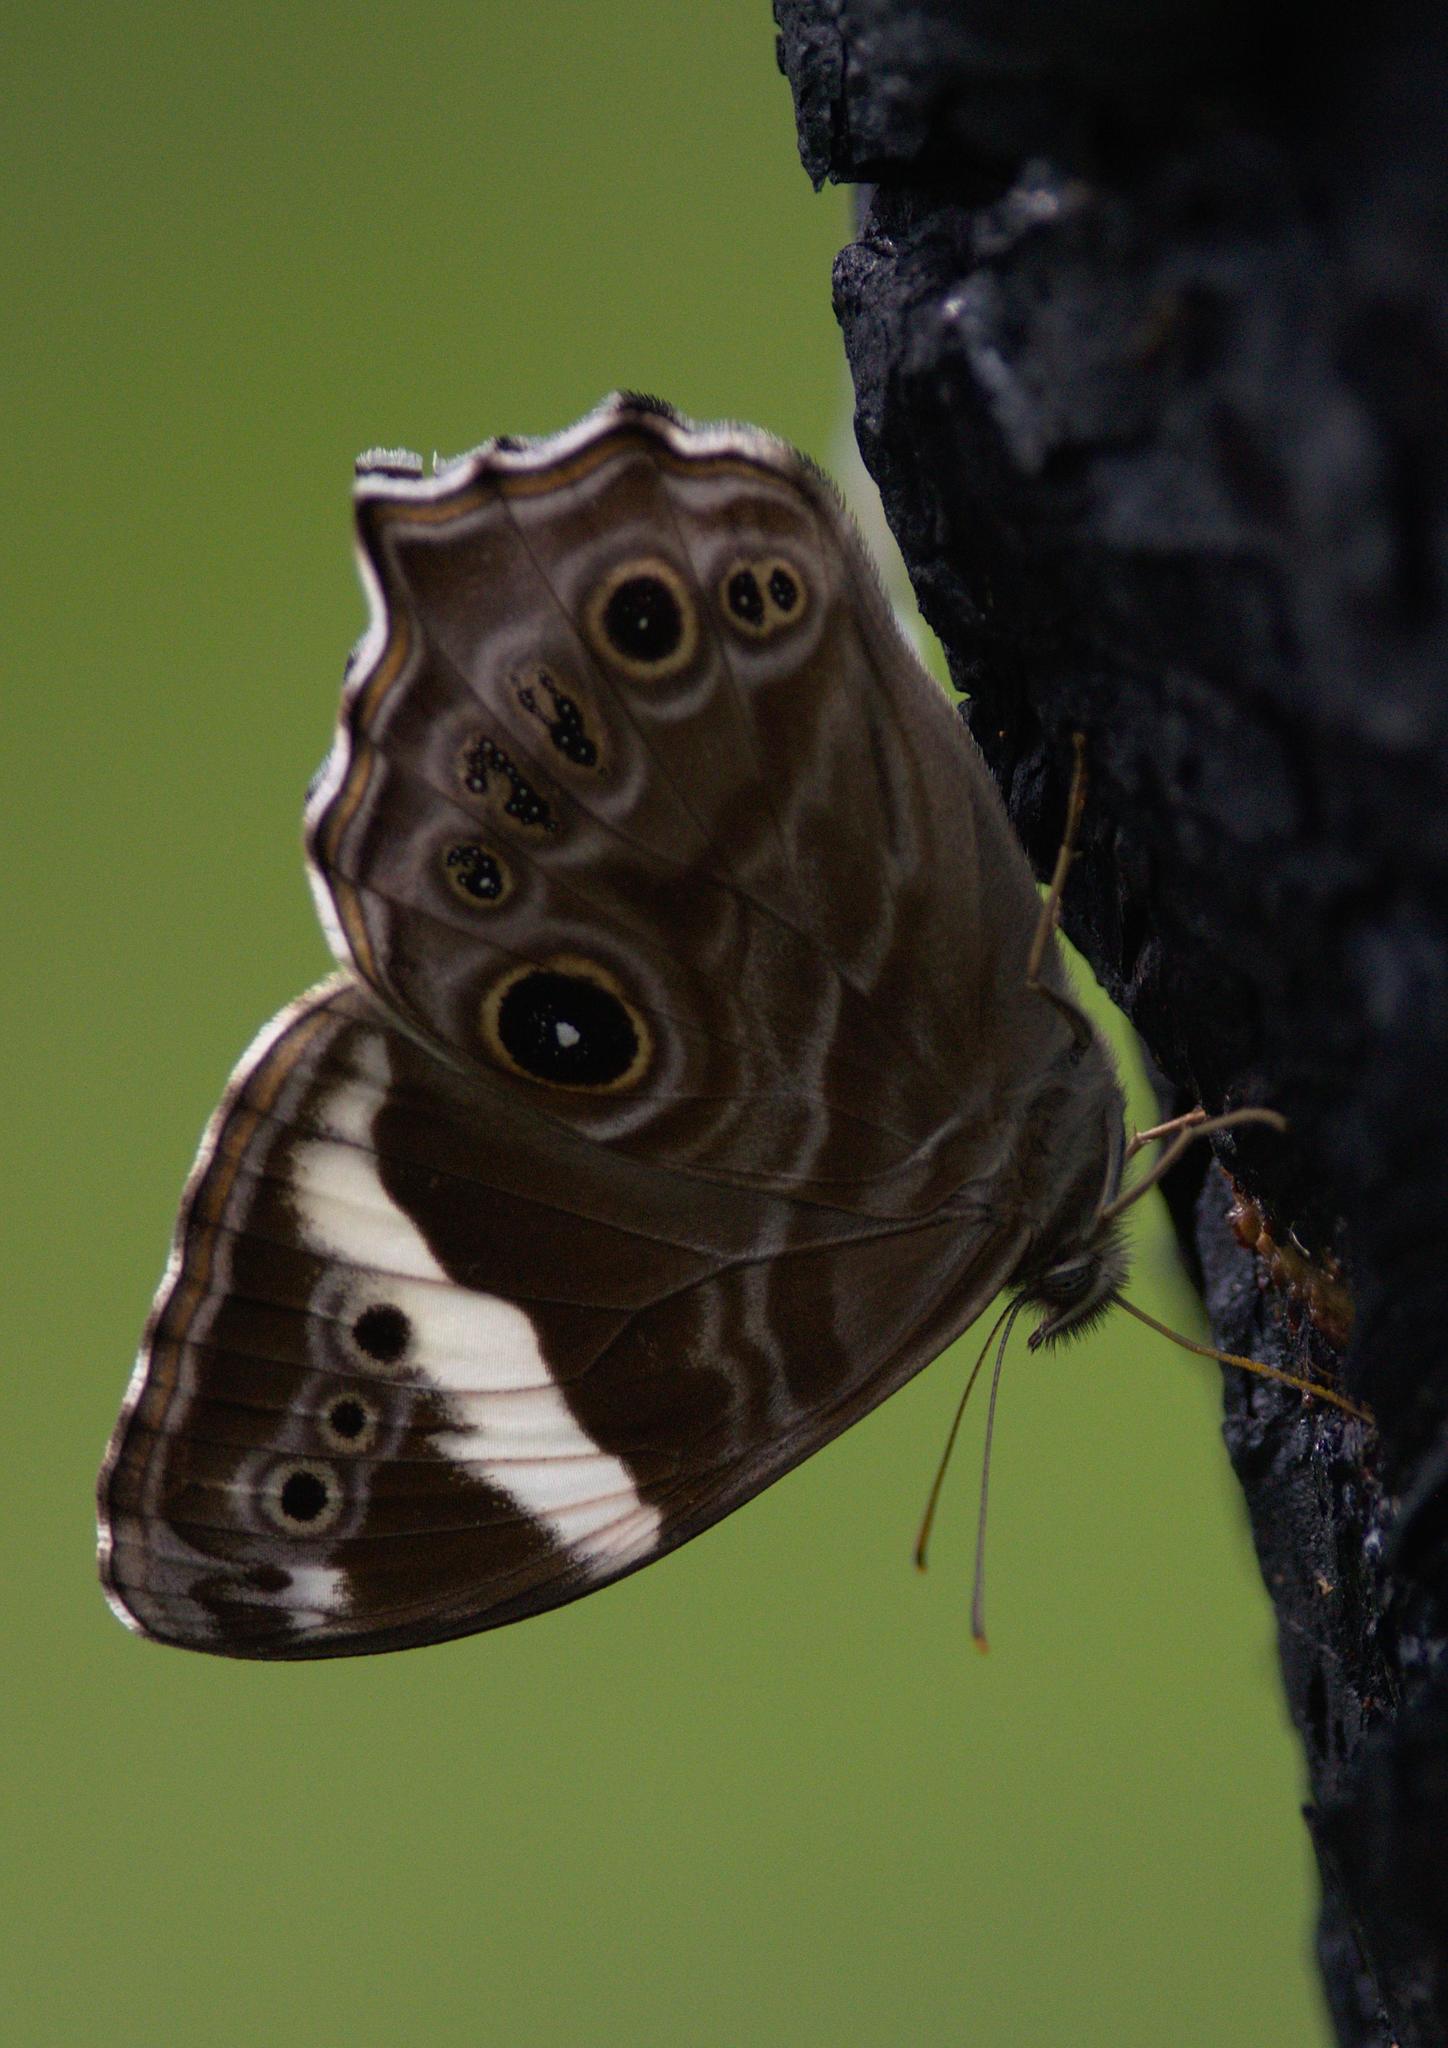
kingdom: Animalia
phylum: Arthropoda
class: Insecta
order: Lepidoptera
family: Nymphalidae
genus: Lethe
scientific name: Lethe rohria
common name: Common treebrown
